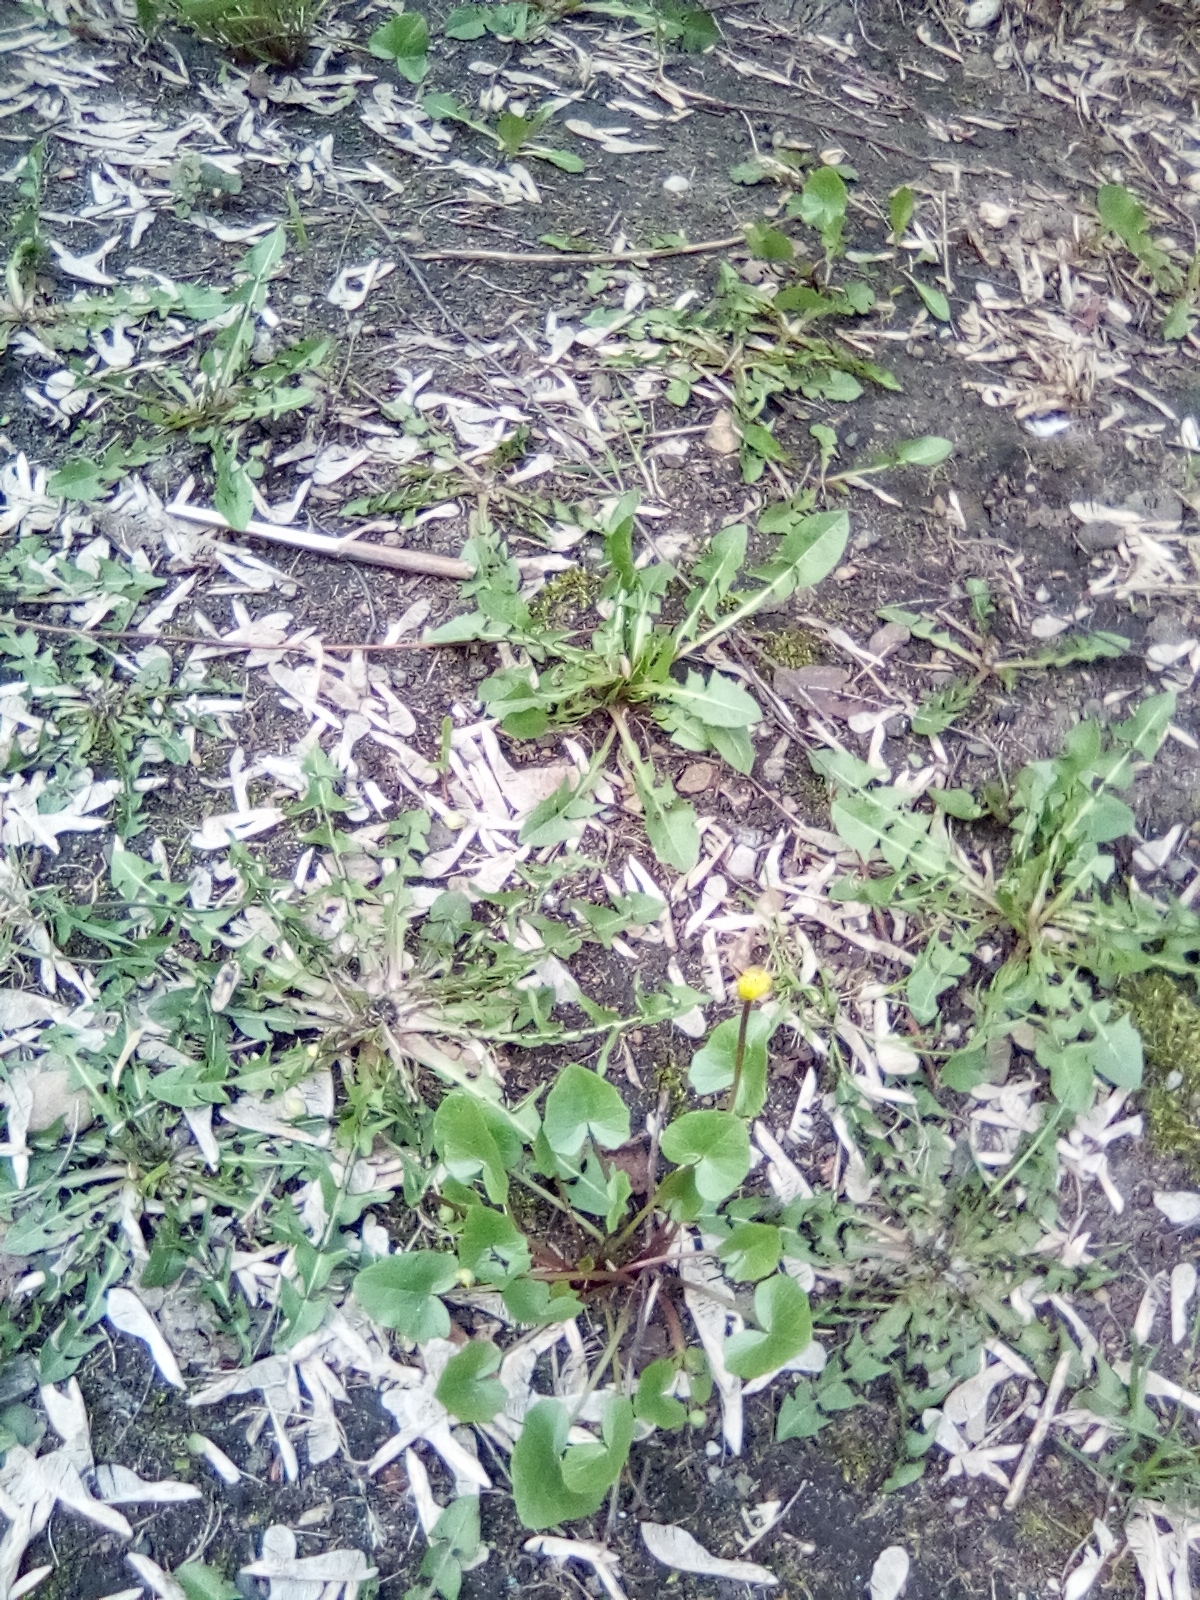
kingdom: Plantae
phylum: Tracheophyta
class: Magnoliopsida
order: Ranunculales
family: Ranunculaceae
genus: Ficaria
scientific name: Ficaria verna
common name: Lesser celandine
